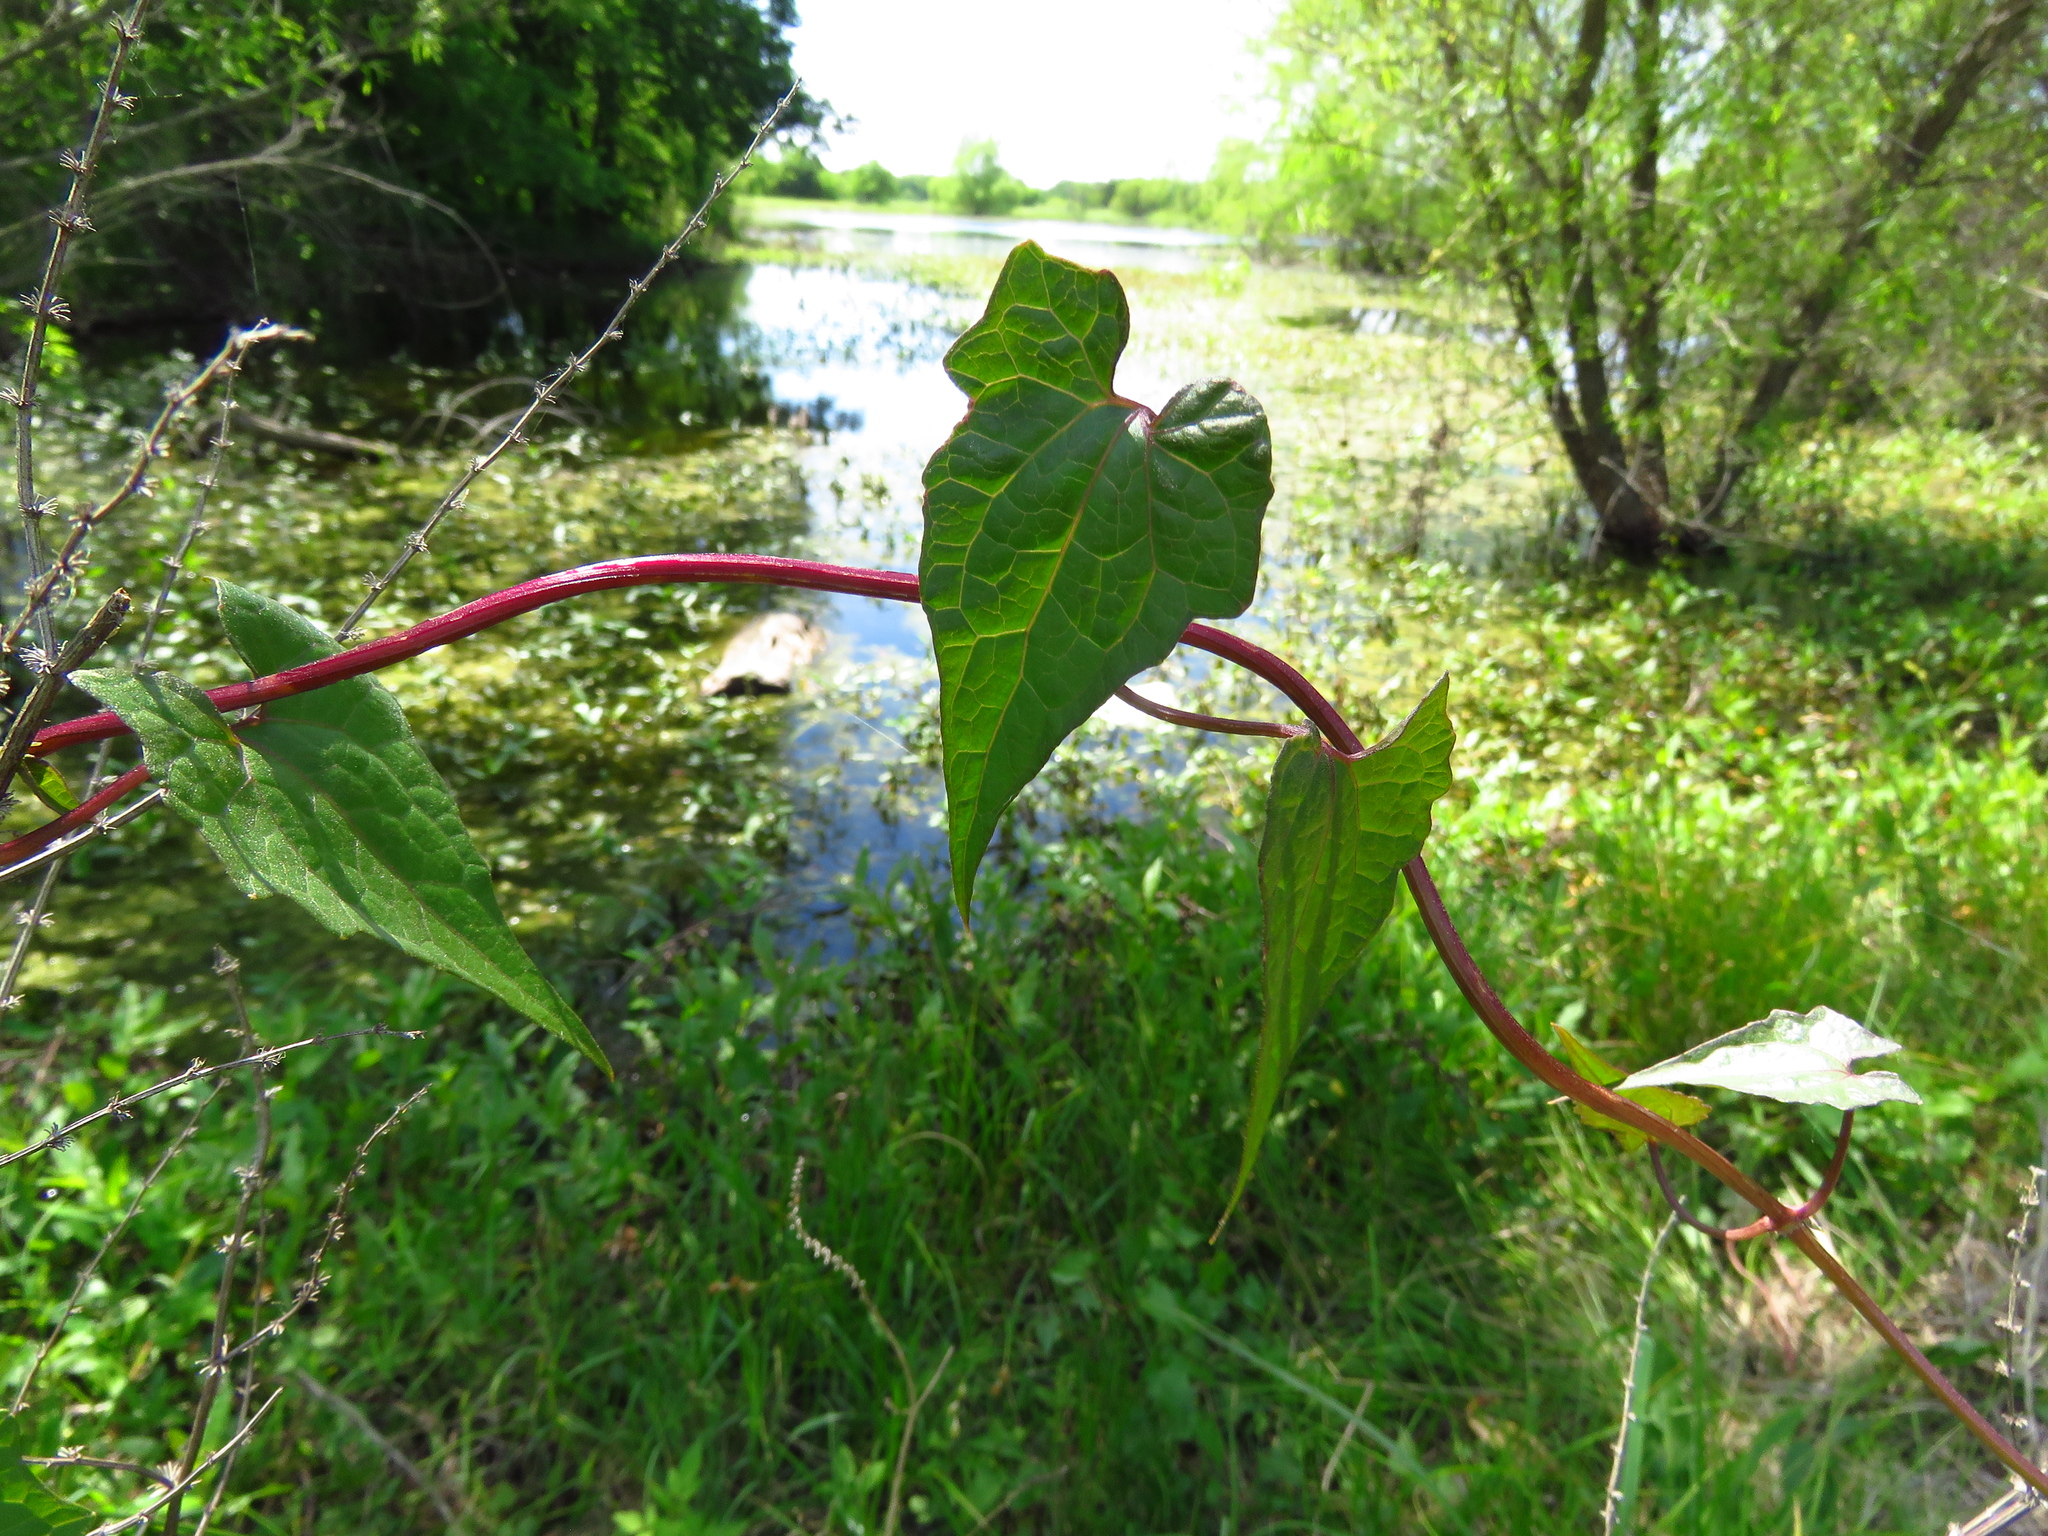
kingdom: Plantae
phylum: Tracheophyta
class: Magnoliopsida
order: Asterales
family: Asteraceae
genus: Mikania
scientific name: Mikania scandens
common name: Climbing hempvine
